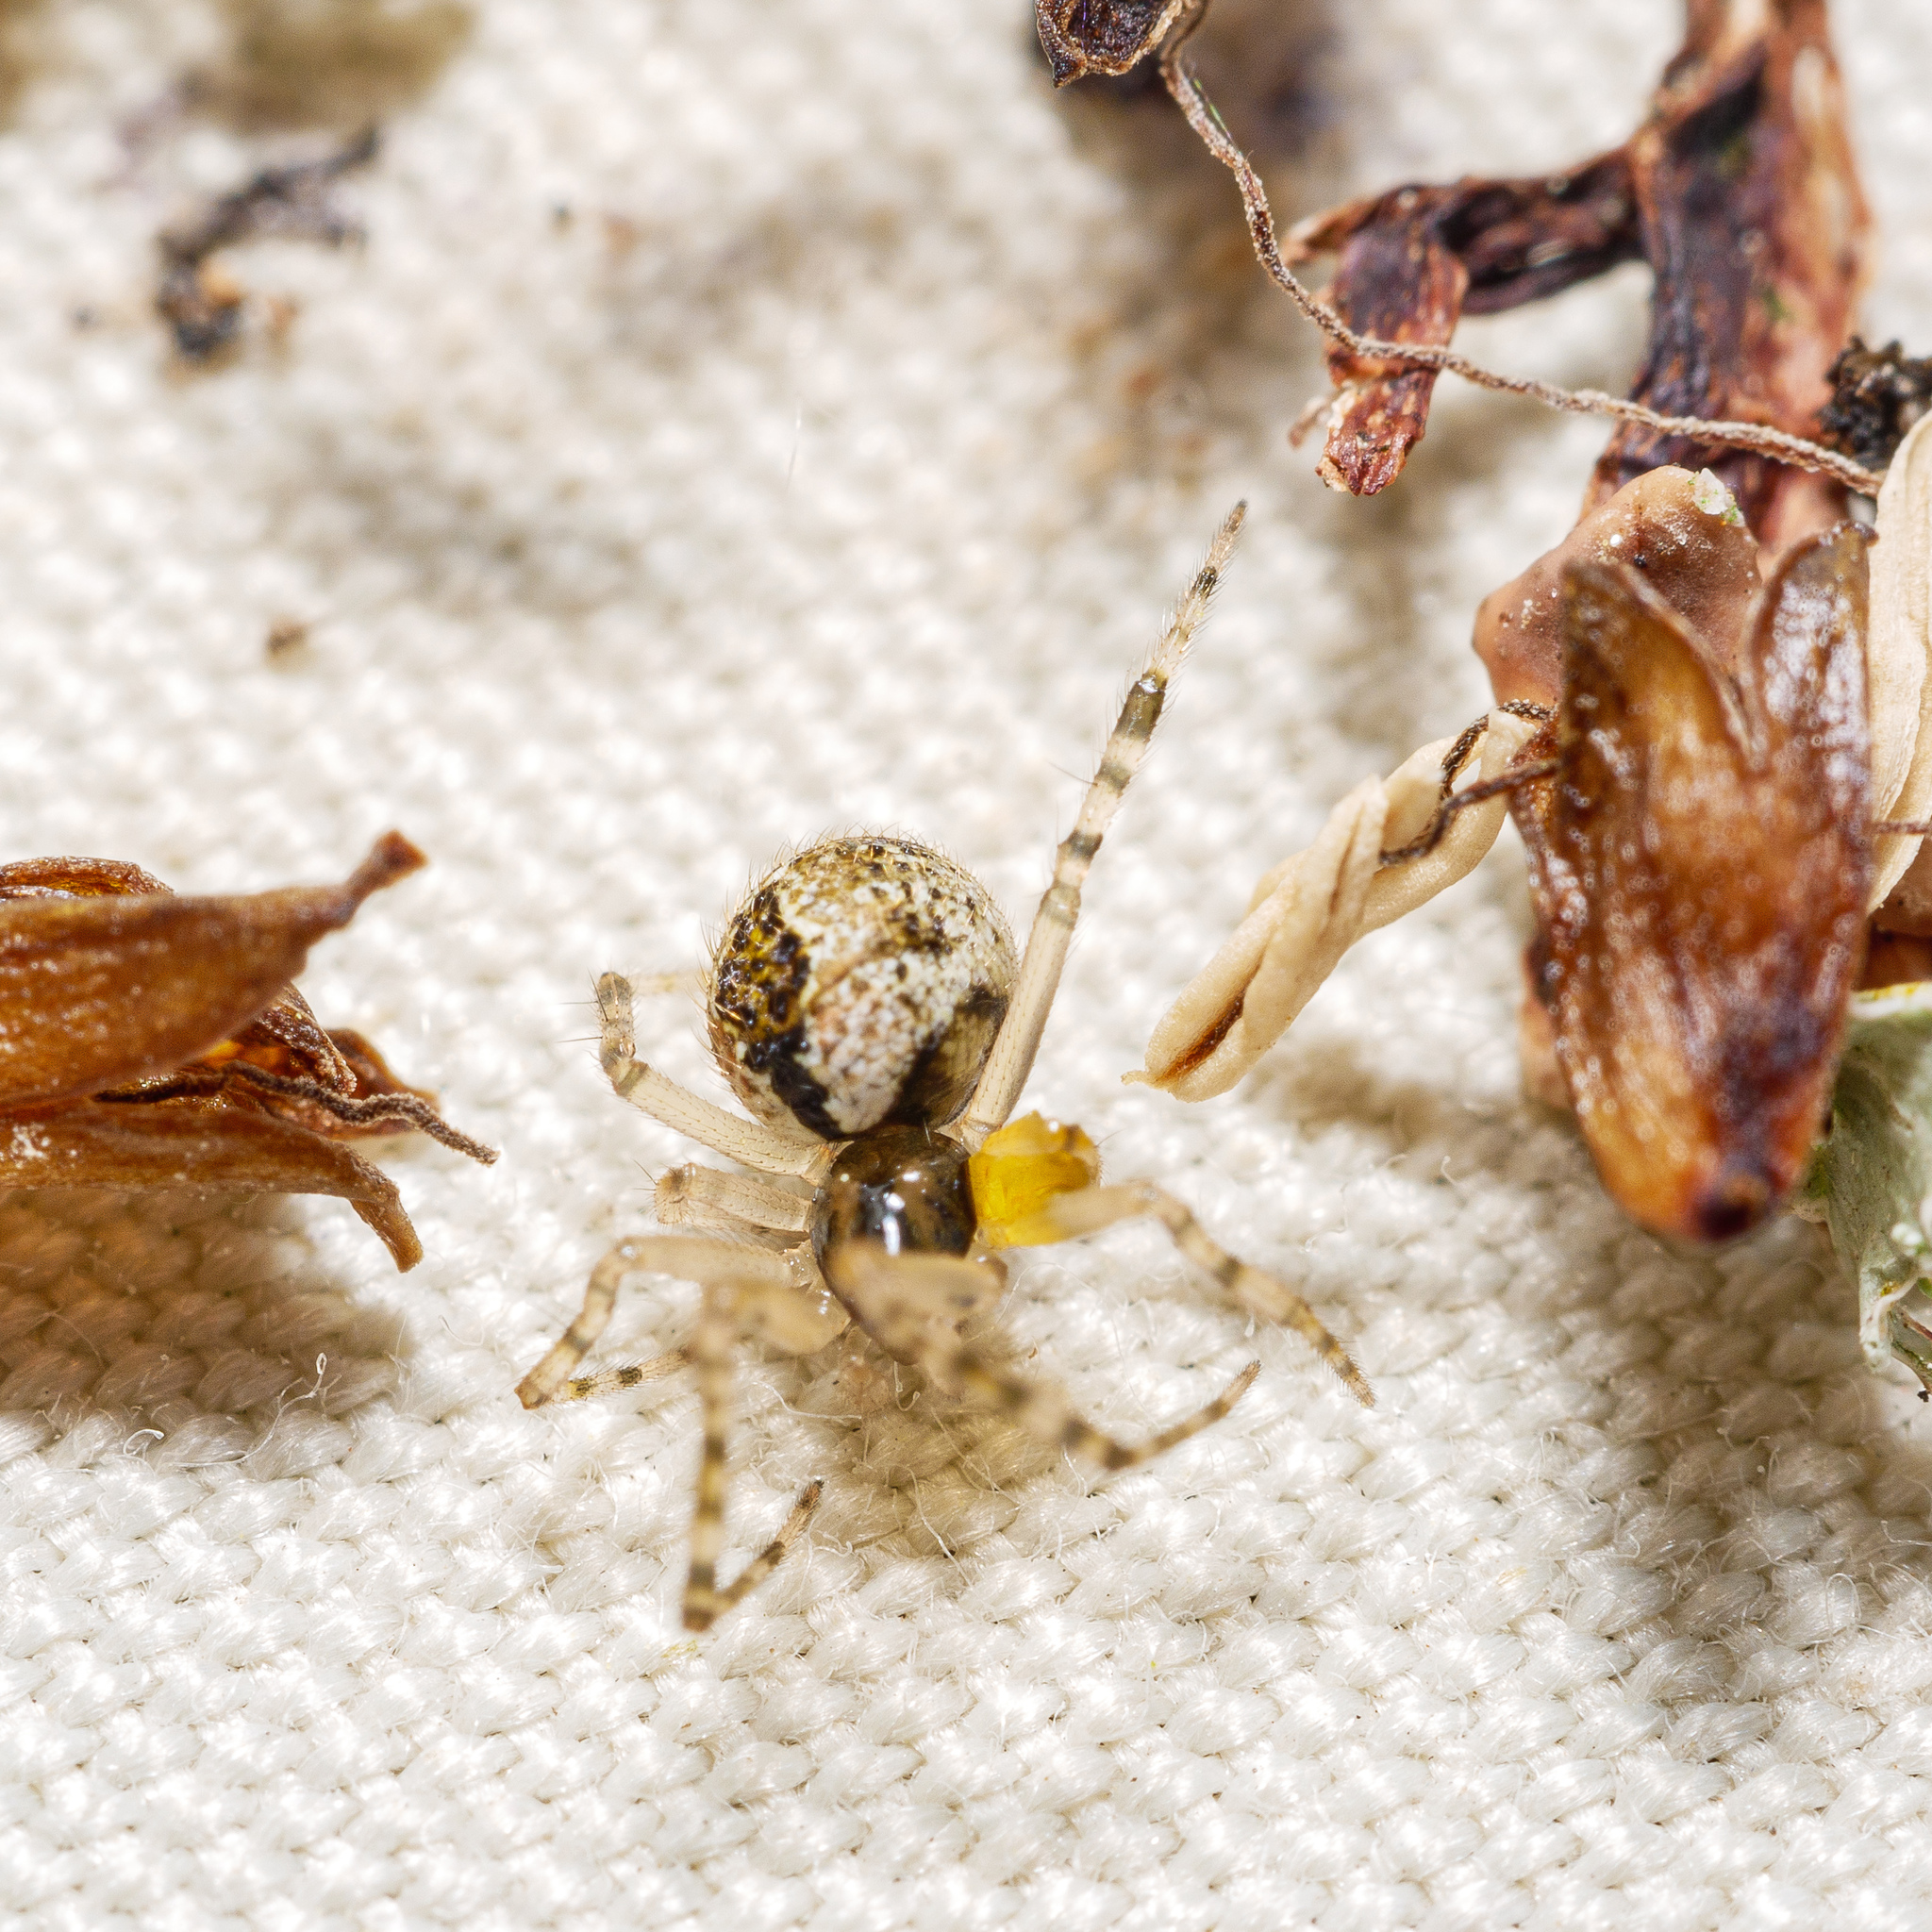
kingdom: Animalia
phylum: Arthropoda
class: Arachnida
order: Araneae
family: Theridiidae
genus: Cryptachaea
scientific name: Cryptachaea veruculata
